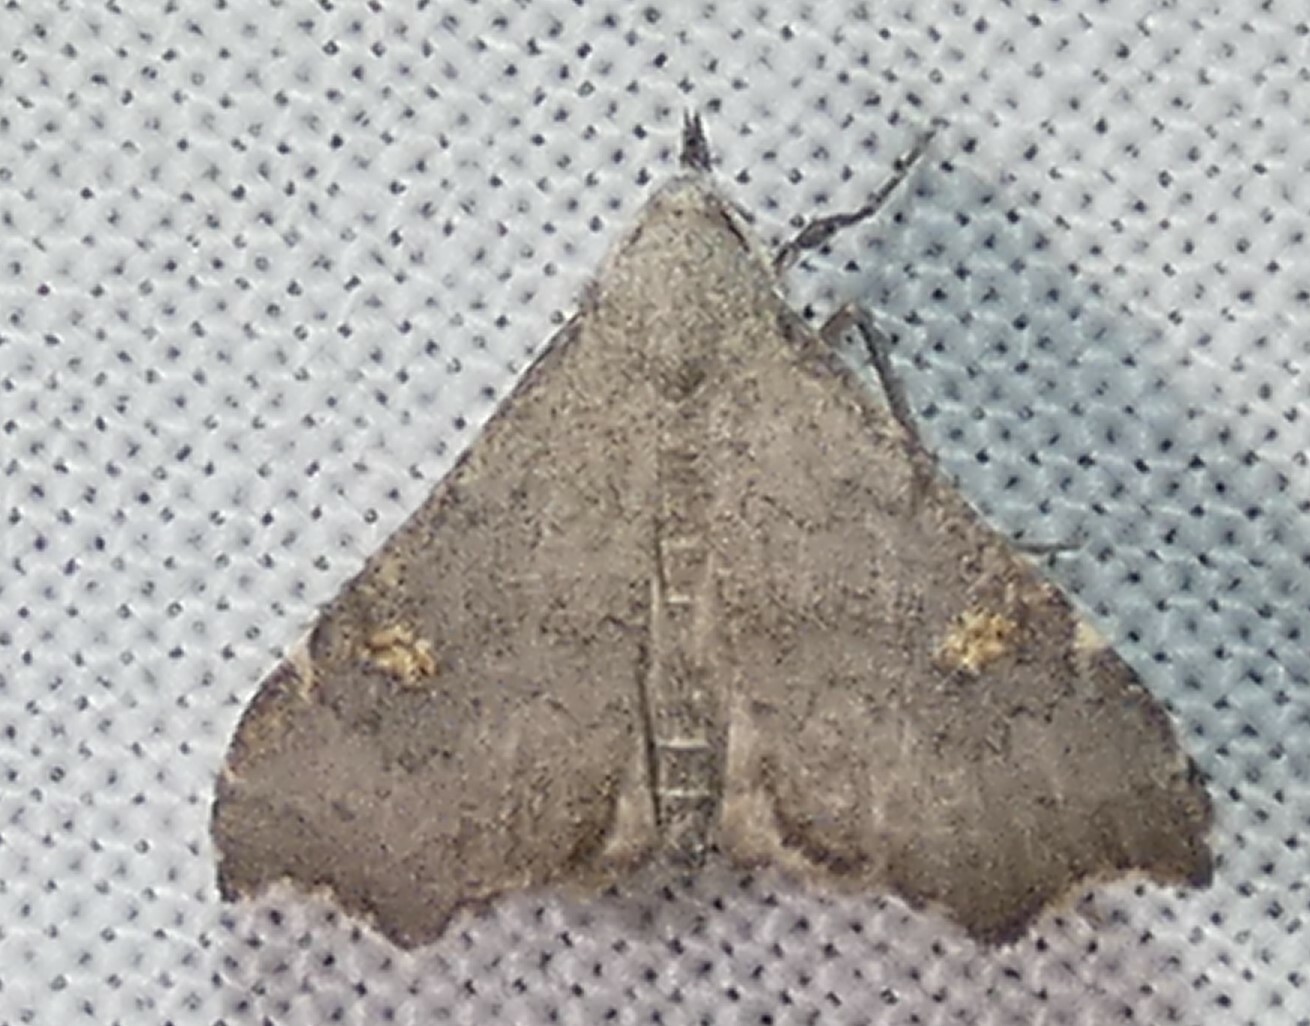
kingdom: Animalia
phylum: Arthropoda
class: Insecta
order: Lepidoptera
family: Erebidae
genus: Redectis
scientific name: Redectis pygmaea
